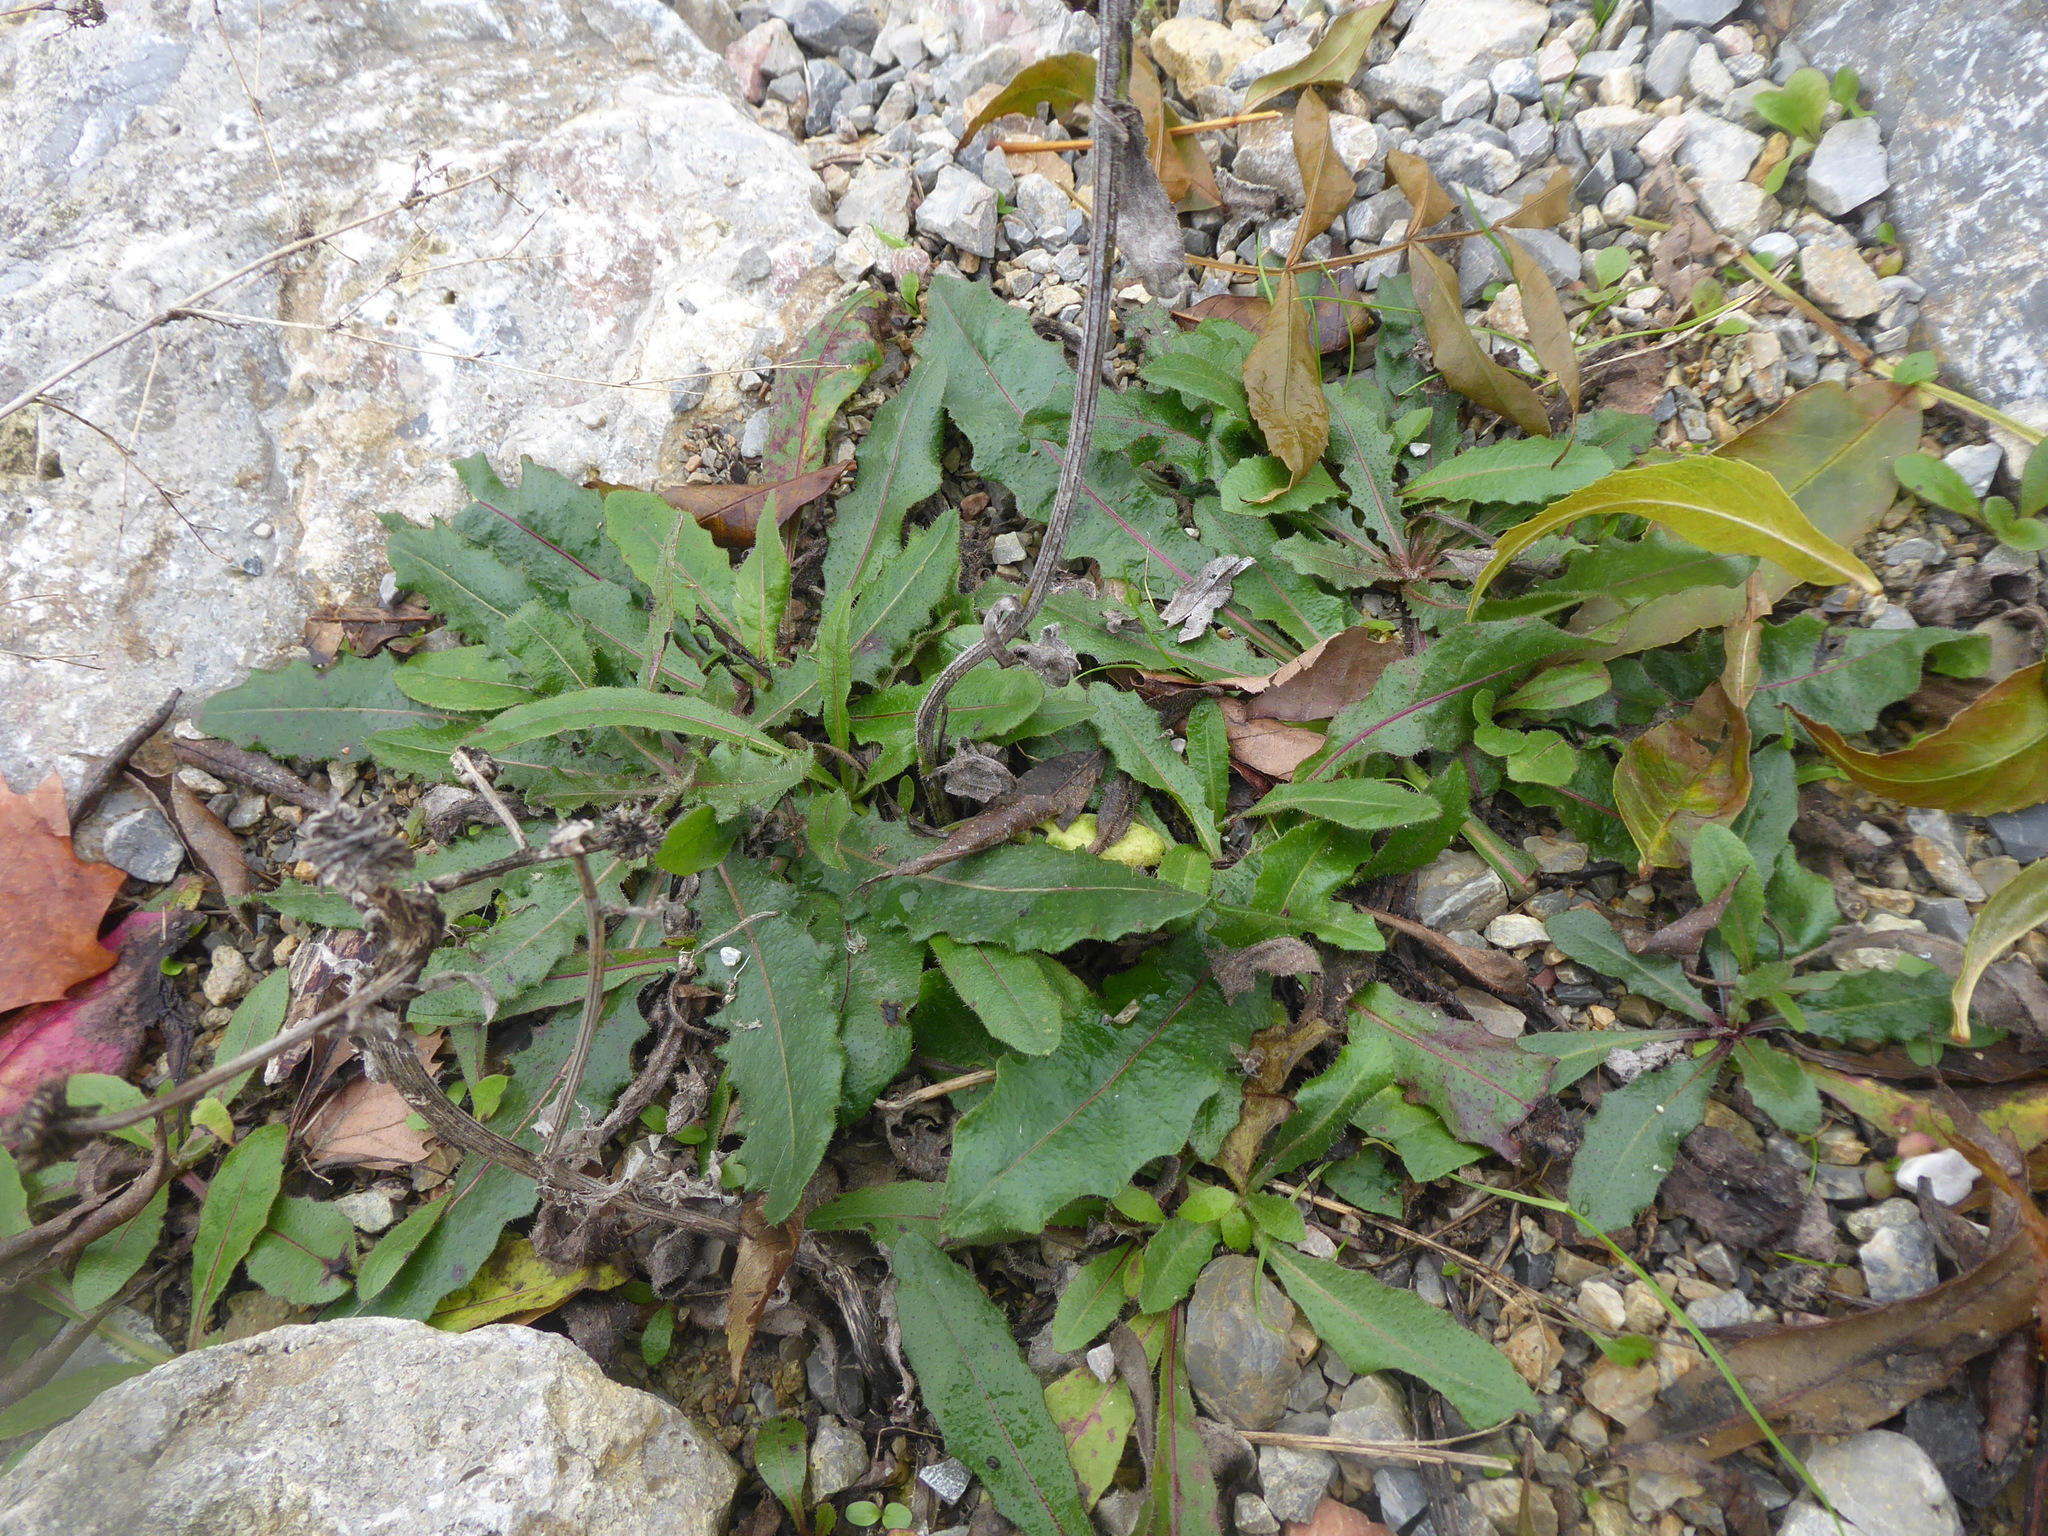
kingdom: Plantae
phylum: Tracheophyta
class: Magnoliopsida
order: Asterales
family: Asteraceae
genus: Picris
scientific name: Picris hieracioides
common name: Hawkweed oxtongue
